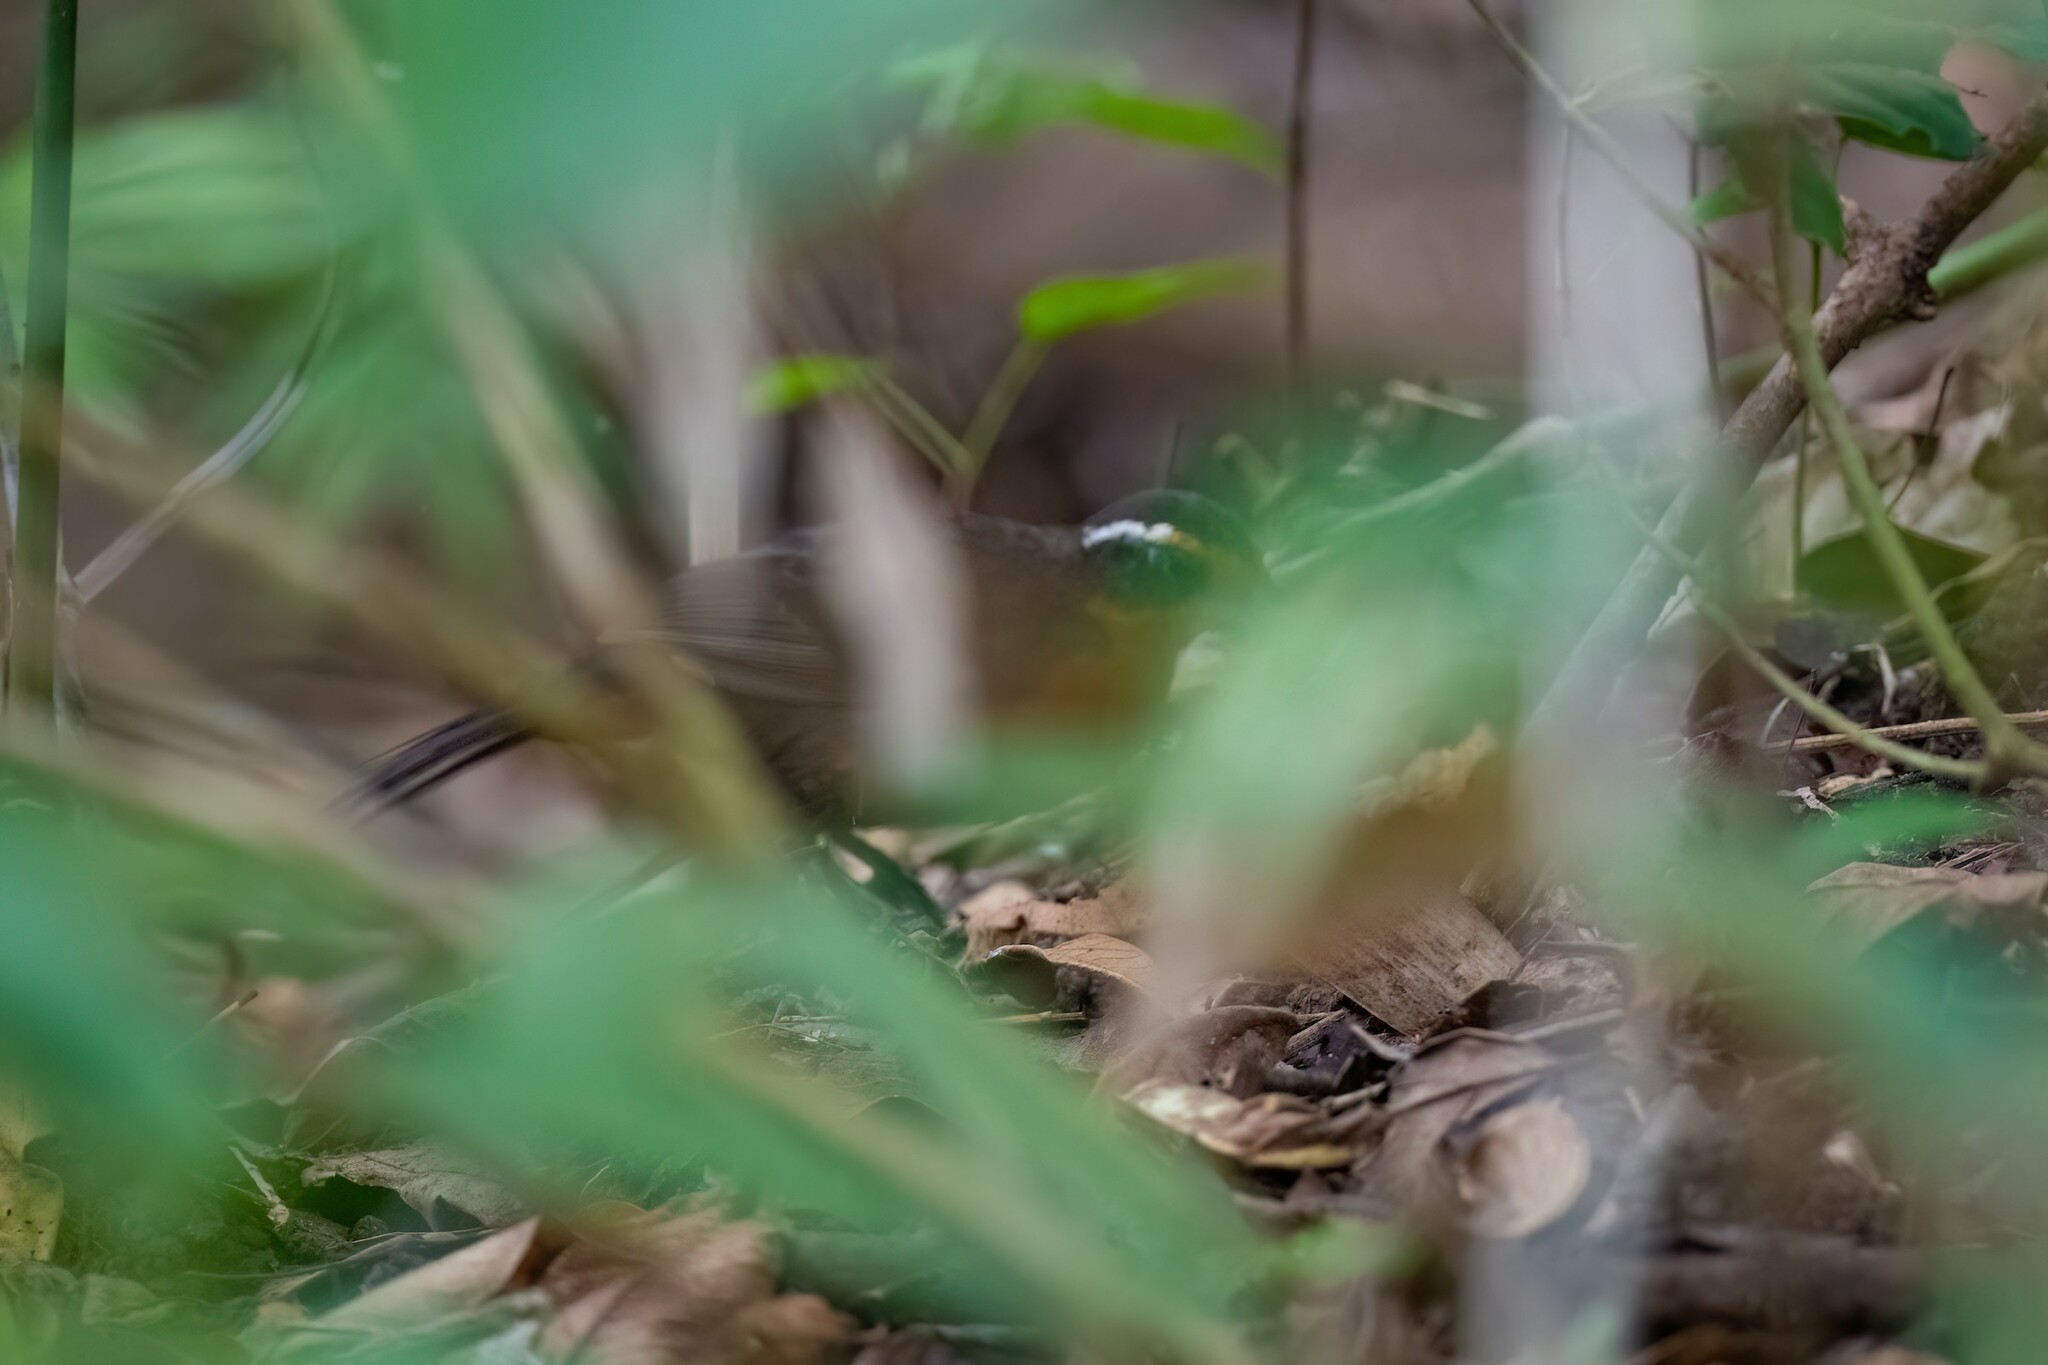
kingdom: Animalia
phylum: Chordata
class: Aves
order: Passeriformes
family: Rhodinocichlidae
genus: Rhodinocichla
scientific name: Rhodinocichla rosea
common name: Rosy thrush-tanager
